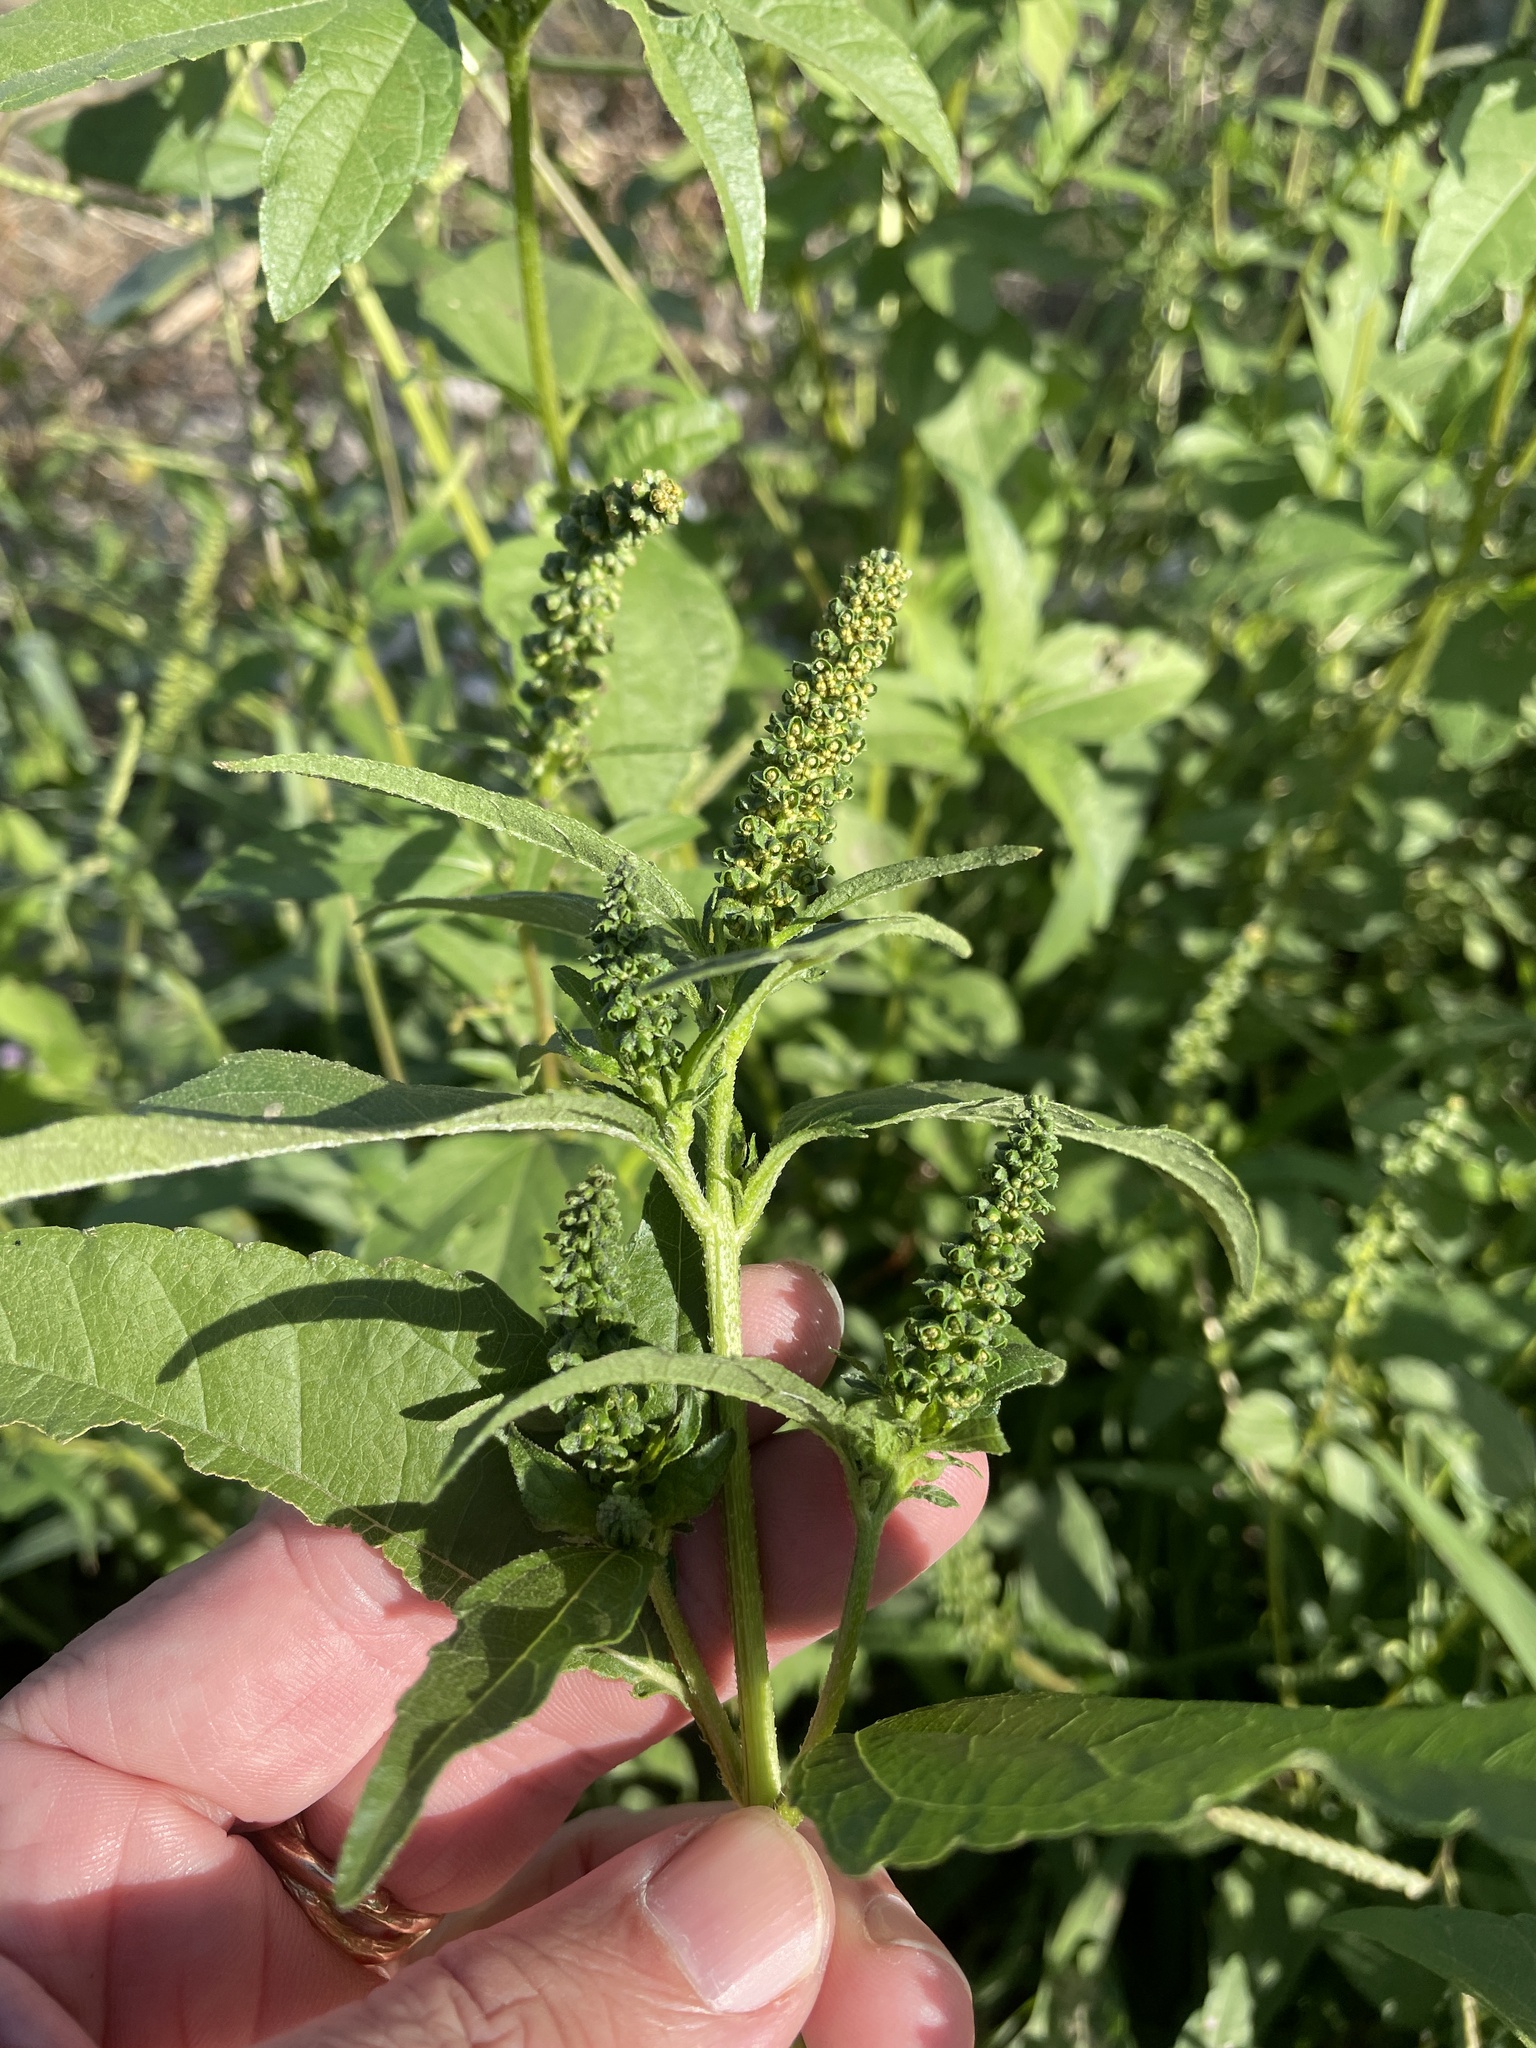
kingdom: Plantae
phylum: Tracheophyta
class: Magnoliopsida
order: Asterales
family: Asteraceae
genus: Ambrosia
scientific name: Ambrosia trifida
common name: Giant ragweed
